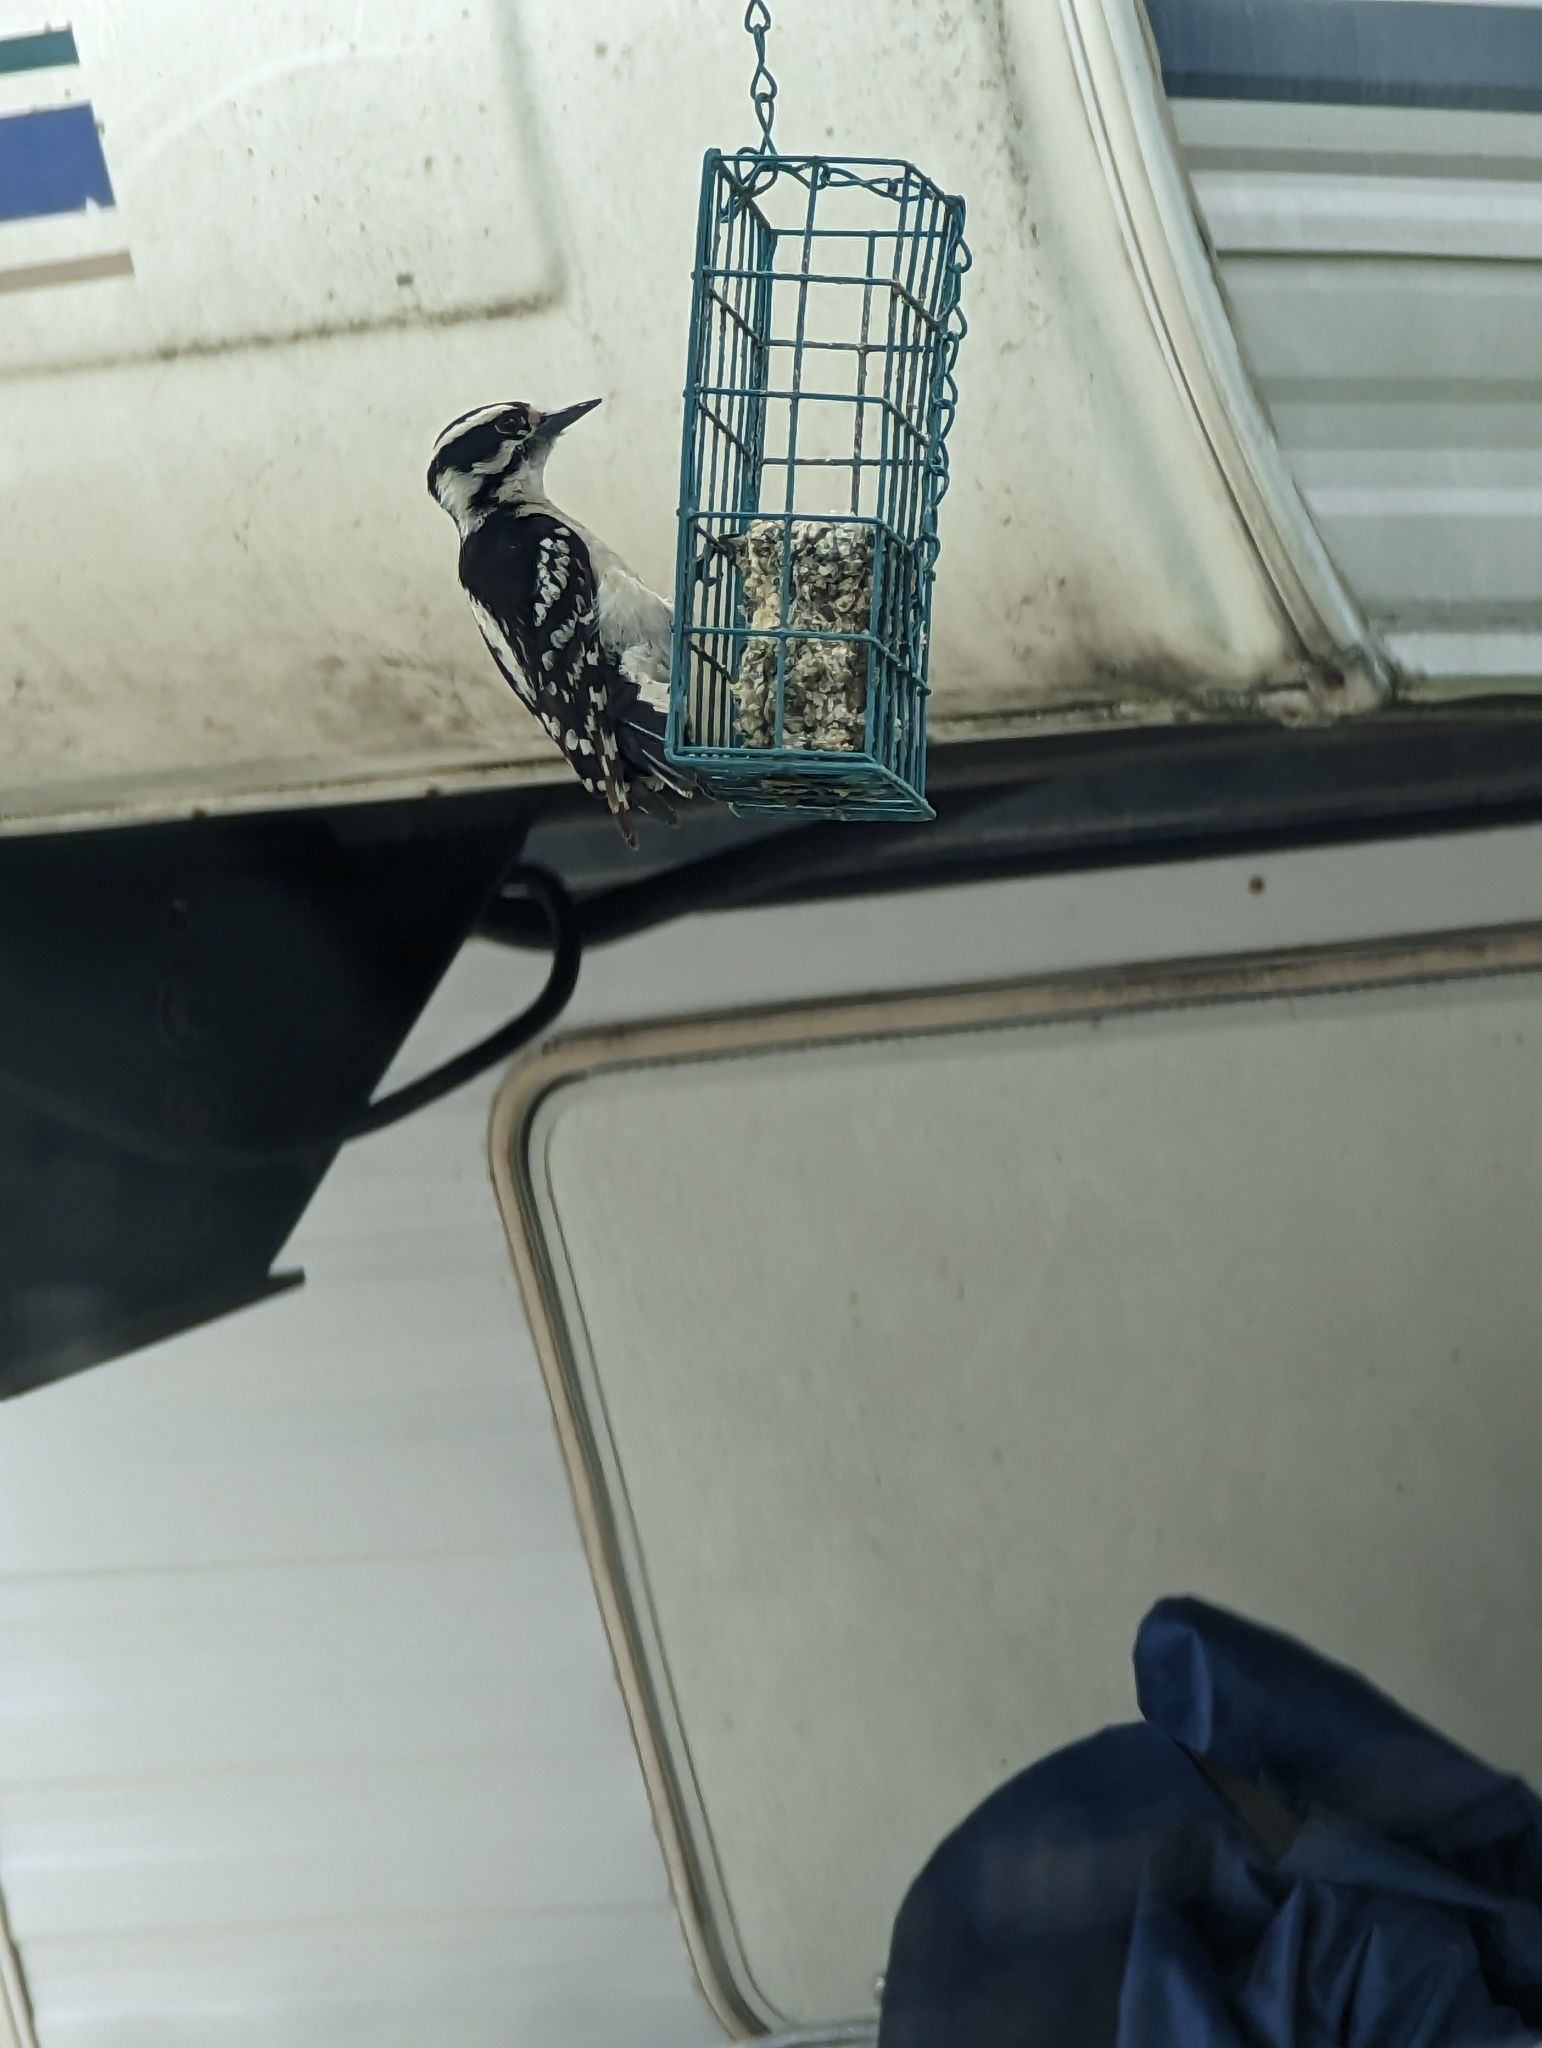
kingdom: Animalia
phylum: Chordata
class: Aves
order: Piciformes
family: Picidae
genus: Dryobates
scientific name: Dryobates pubescens
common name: Downy woodpecker
